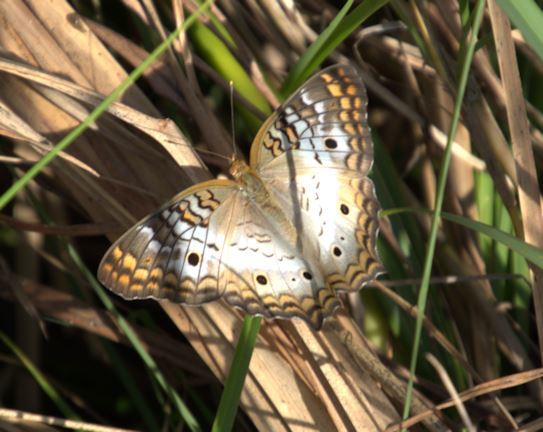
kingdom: Animalia
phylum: Arthropoda
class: Insecta
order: Lepidoptera
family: Nymphalidae
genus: Anartia
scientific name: Anartia jatrophae
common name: White peacock
